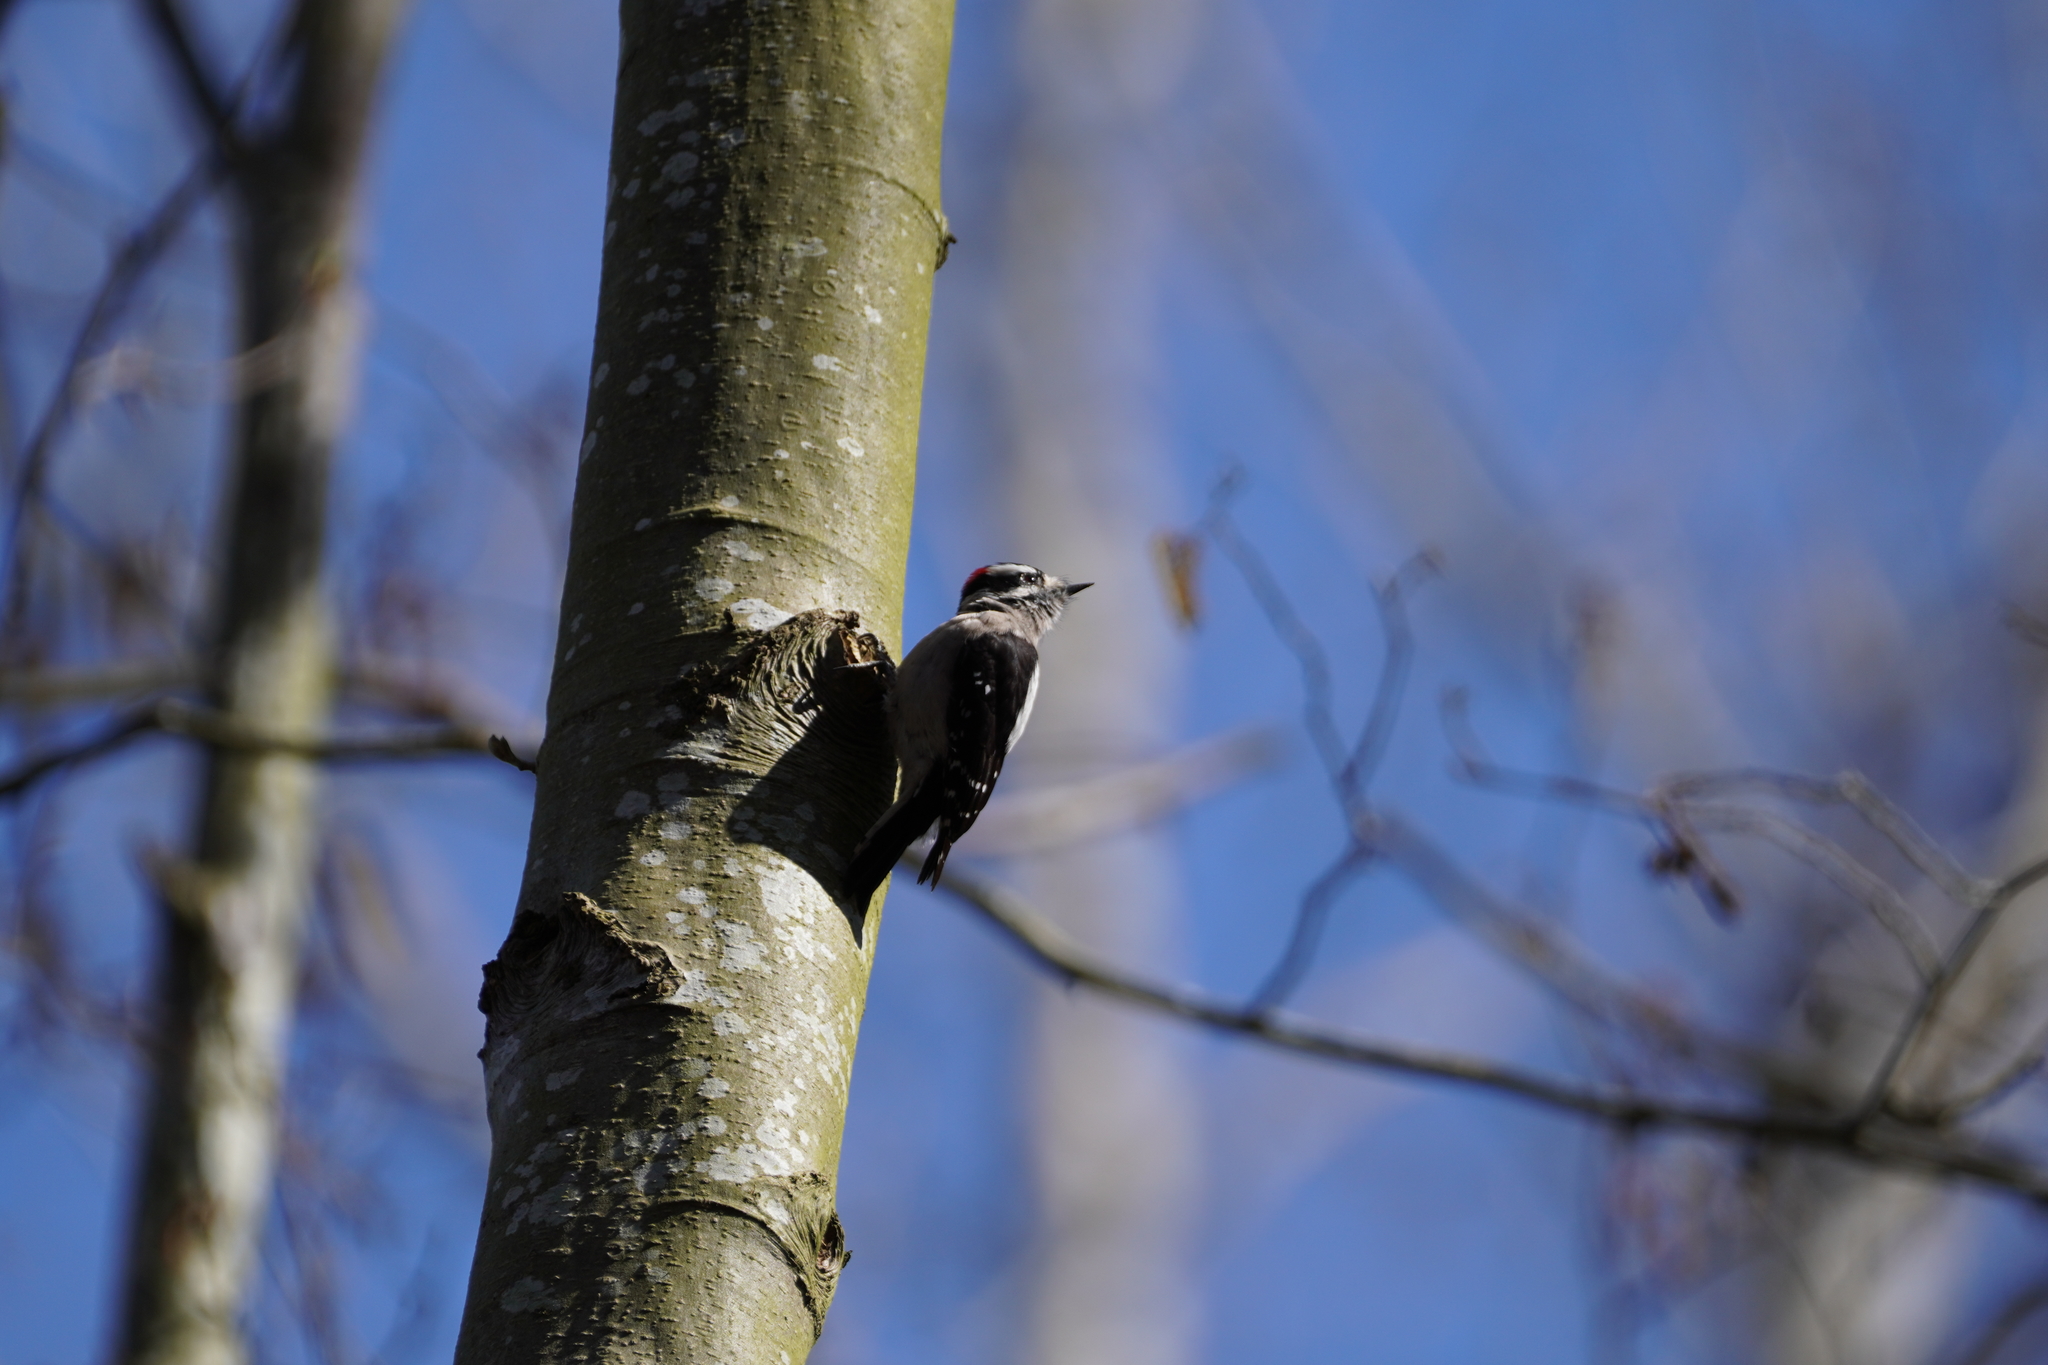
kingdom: Animalia
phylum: Chordata
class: Aves
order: Piciformes
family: Picidae
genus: Dryobates
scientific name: Dryobates pubescens
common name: Downy woodpecker
